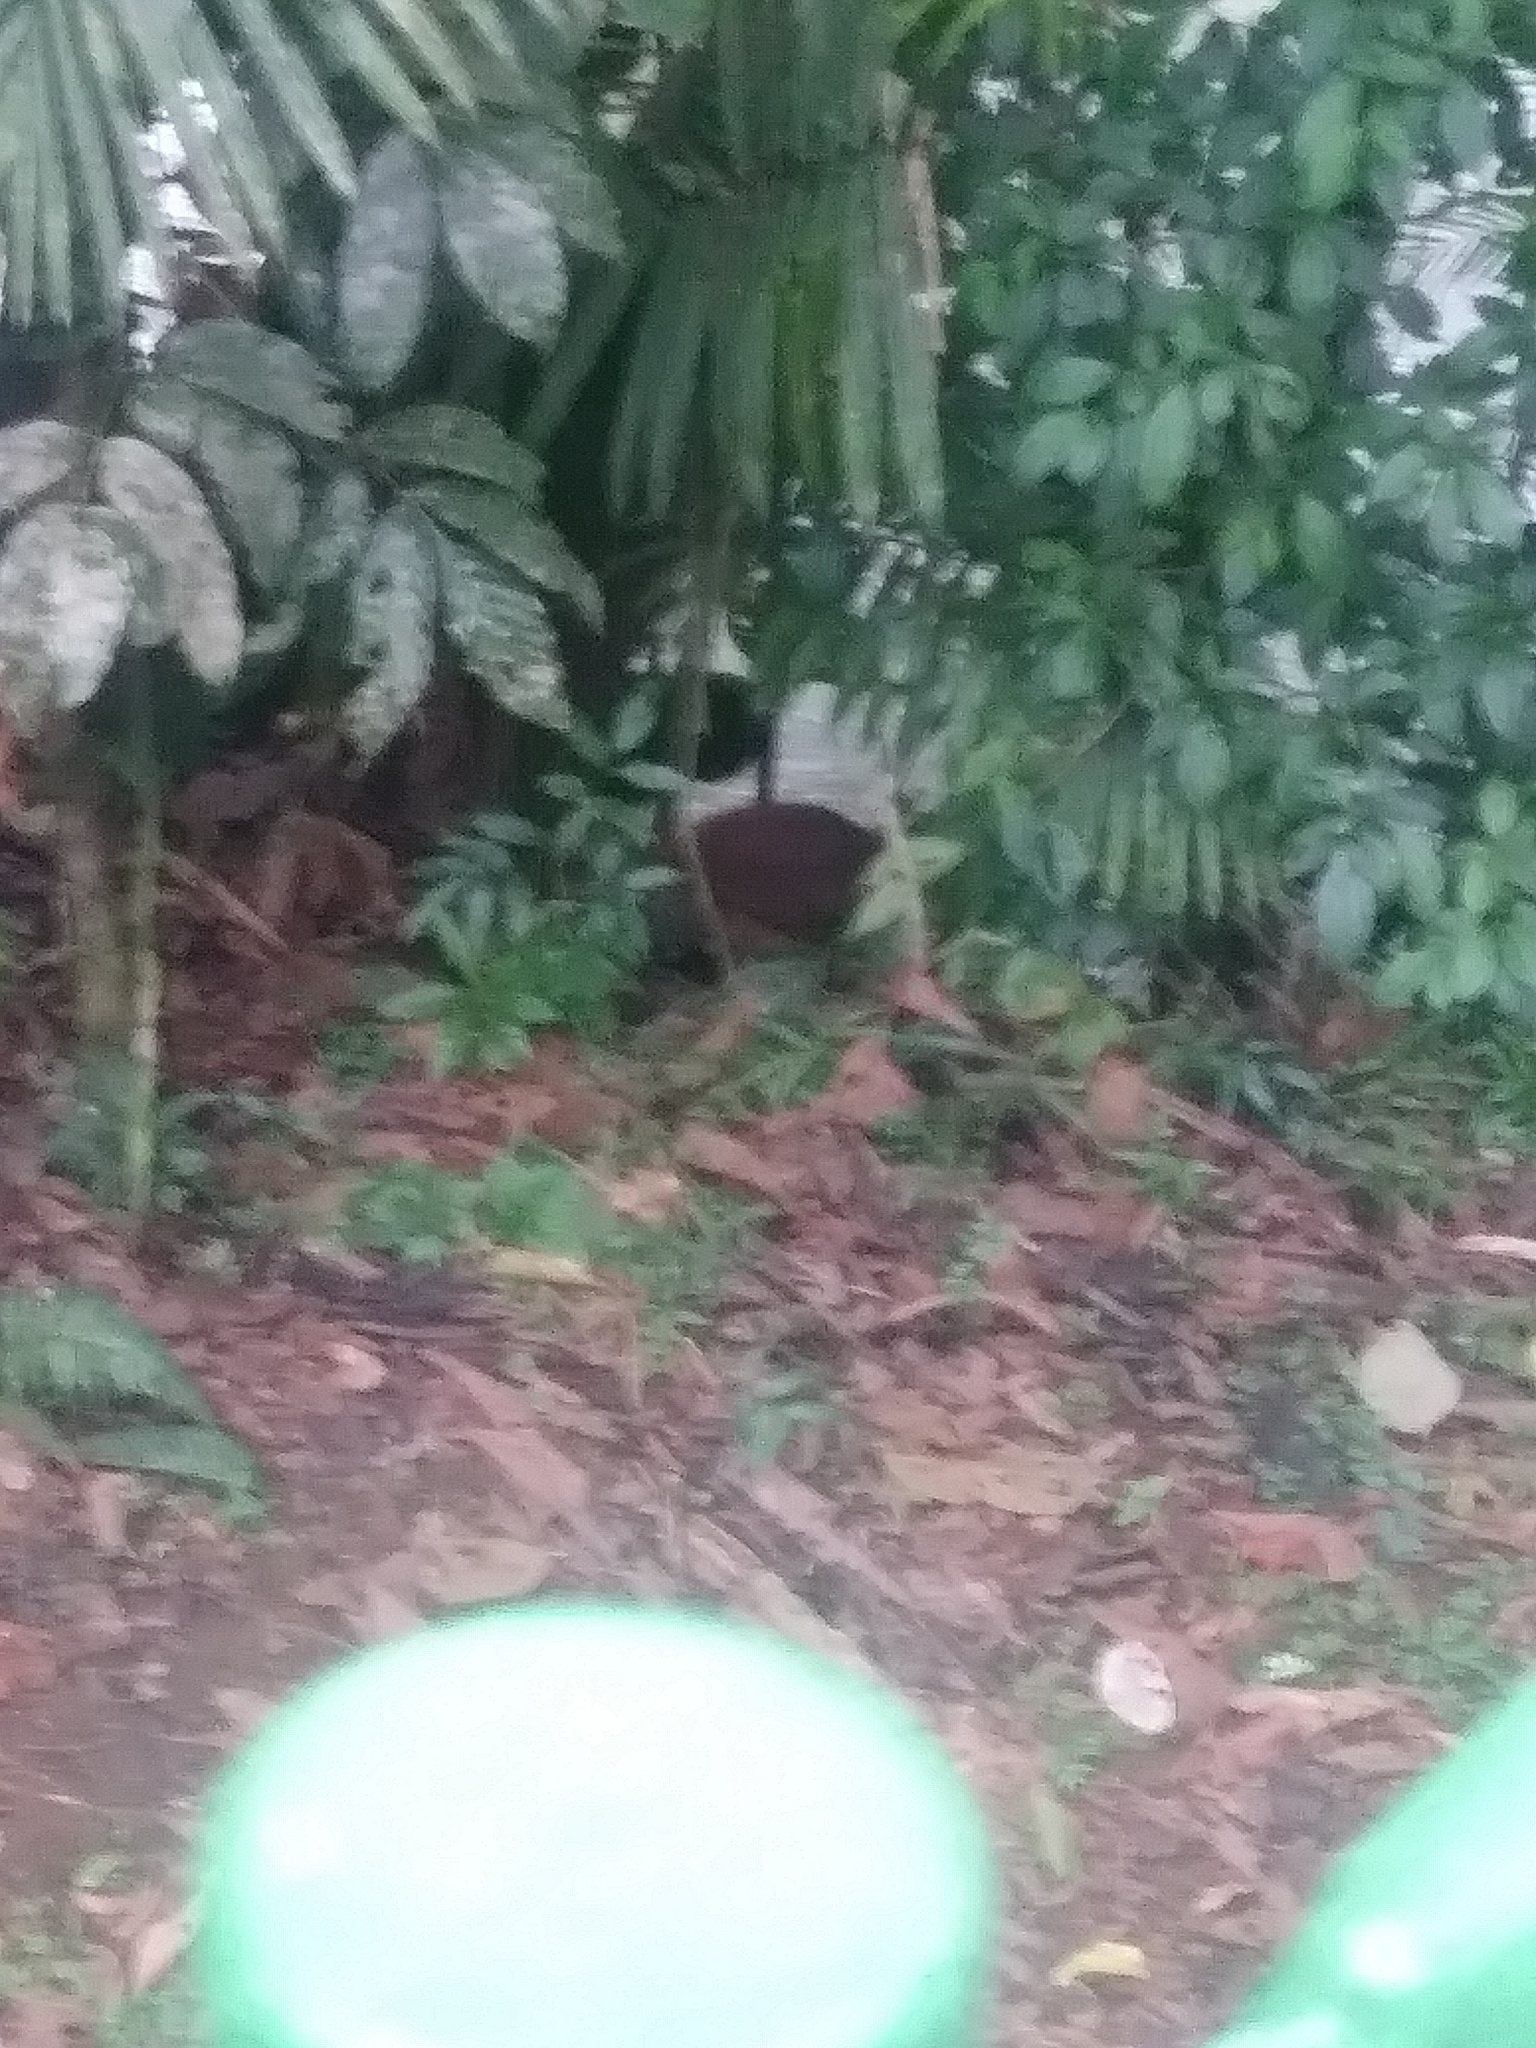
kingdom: Animalia
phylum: Chordata
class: Aves
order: Galliformes
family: Cracidae
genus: Crax
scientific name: Crax rubra
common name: Great curassow
